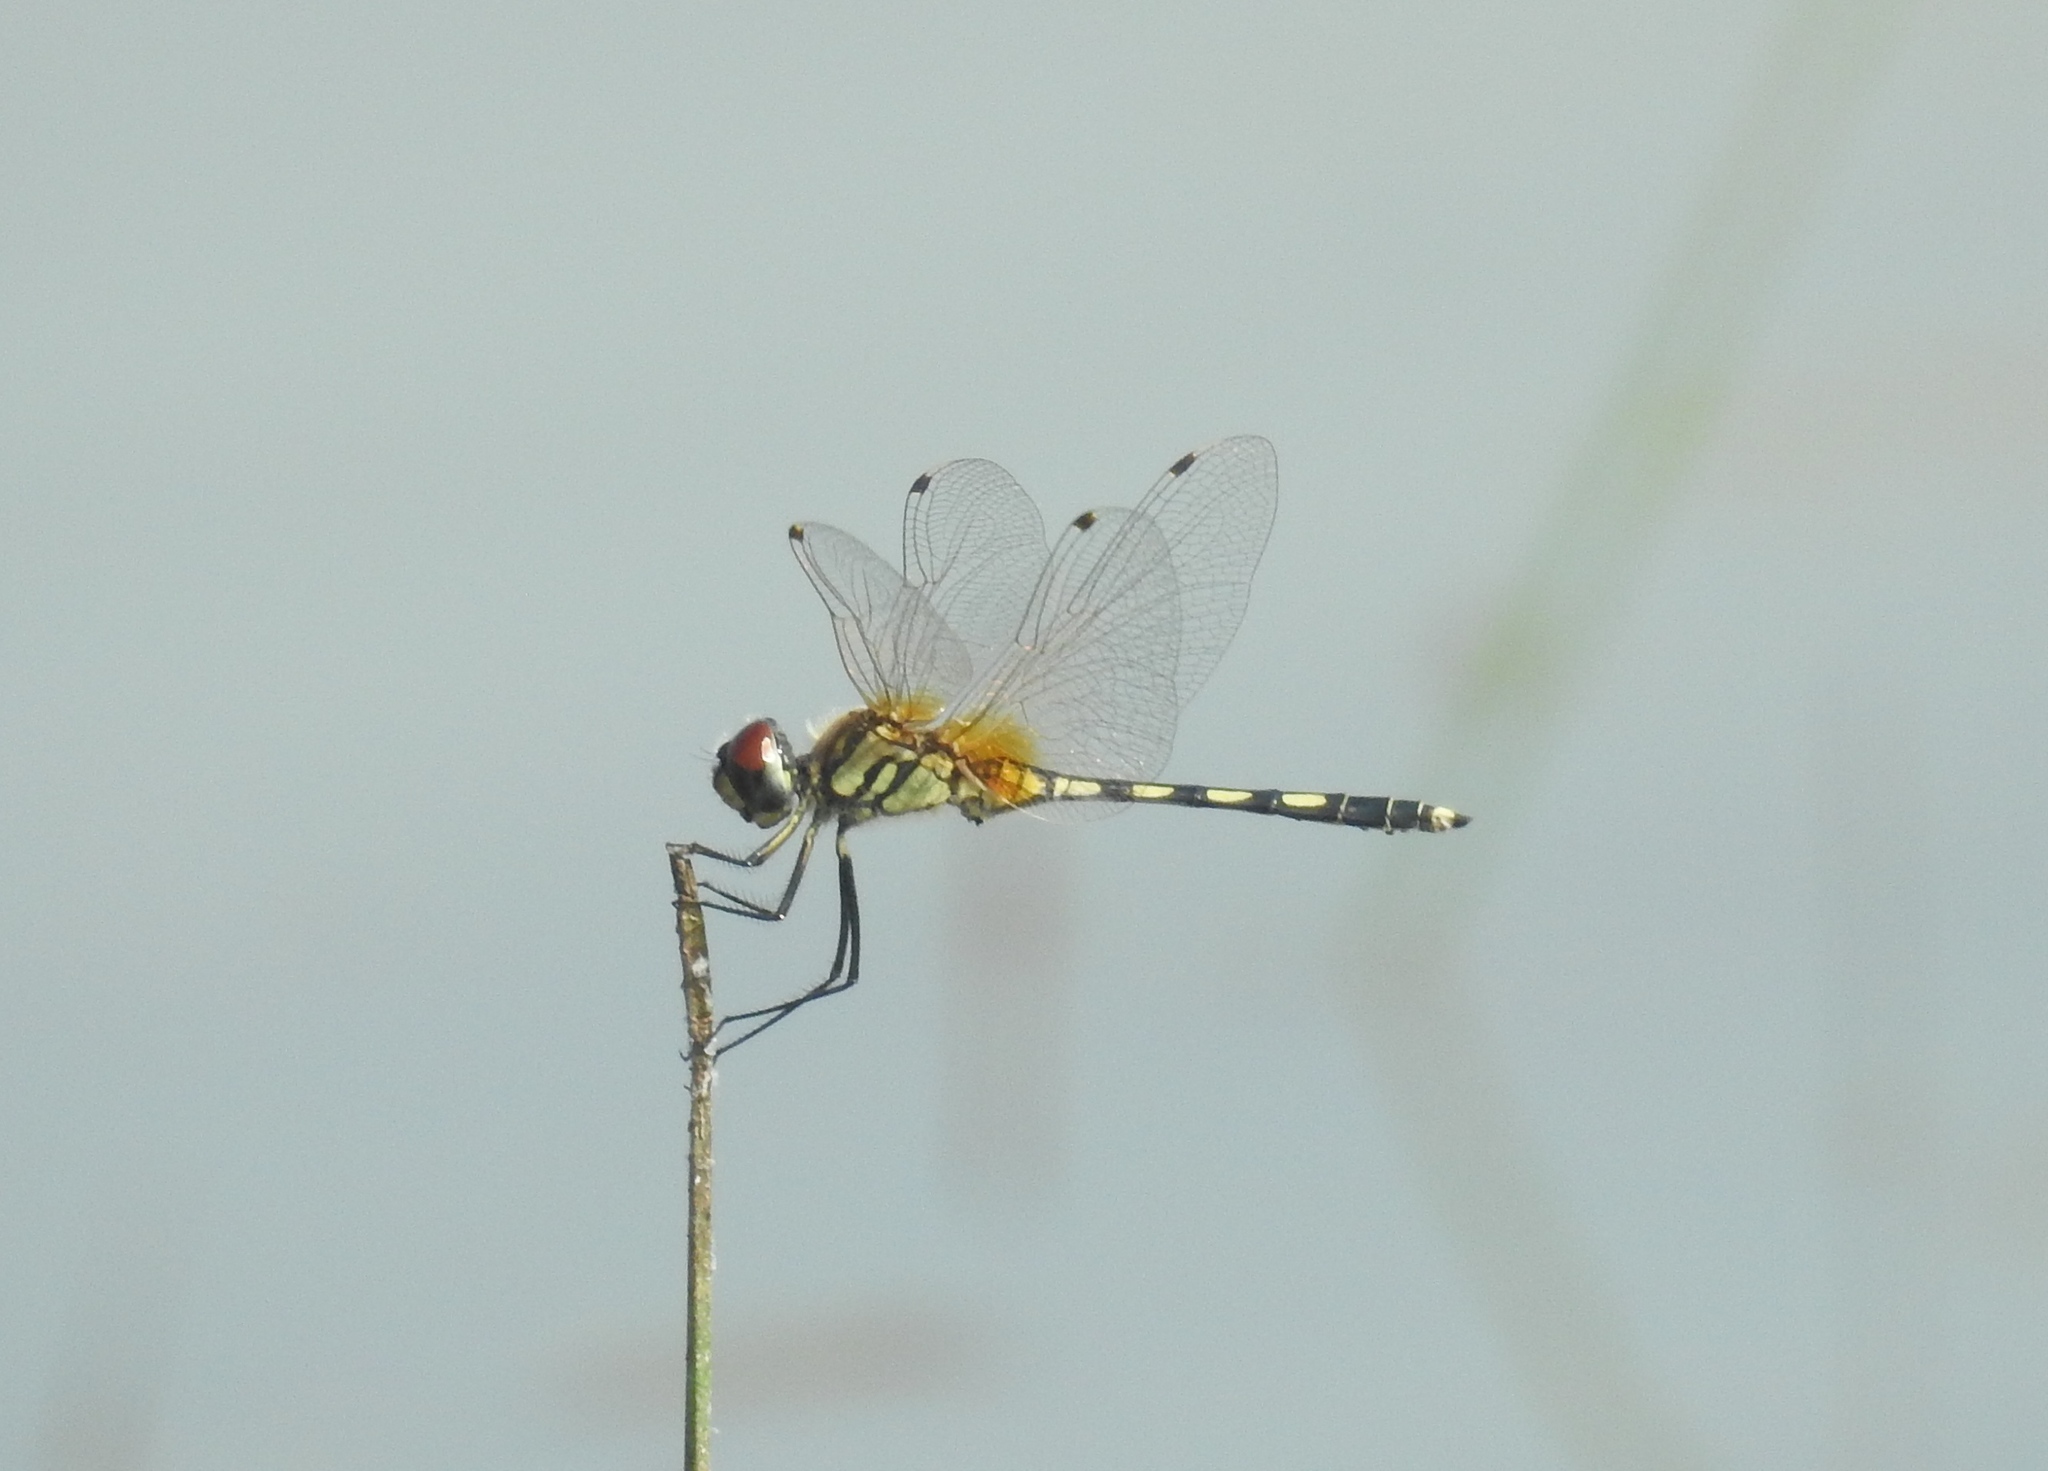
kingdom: Animalia
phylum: Arthropoda
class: Insecta
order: Odonata
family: Libellulidae
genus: Trithemis
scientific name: Trithemis pallidinervis
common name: Dancing dropwing
